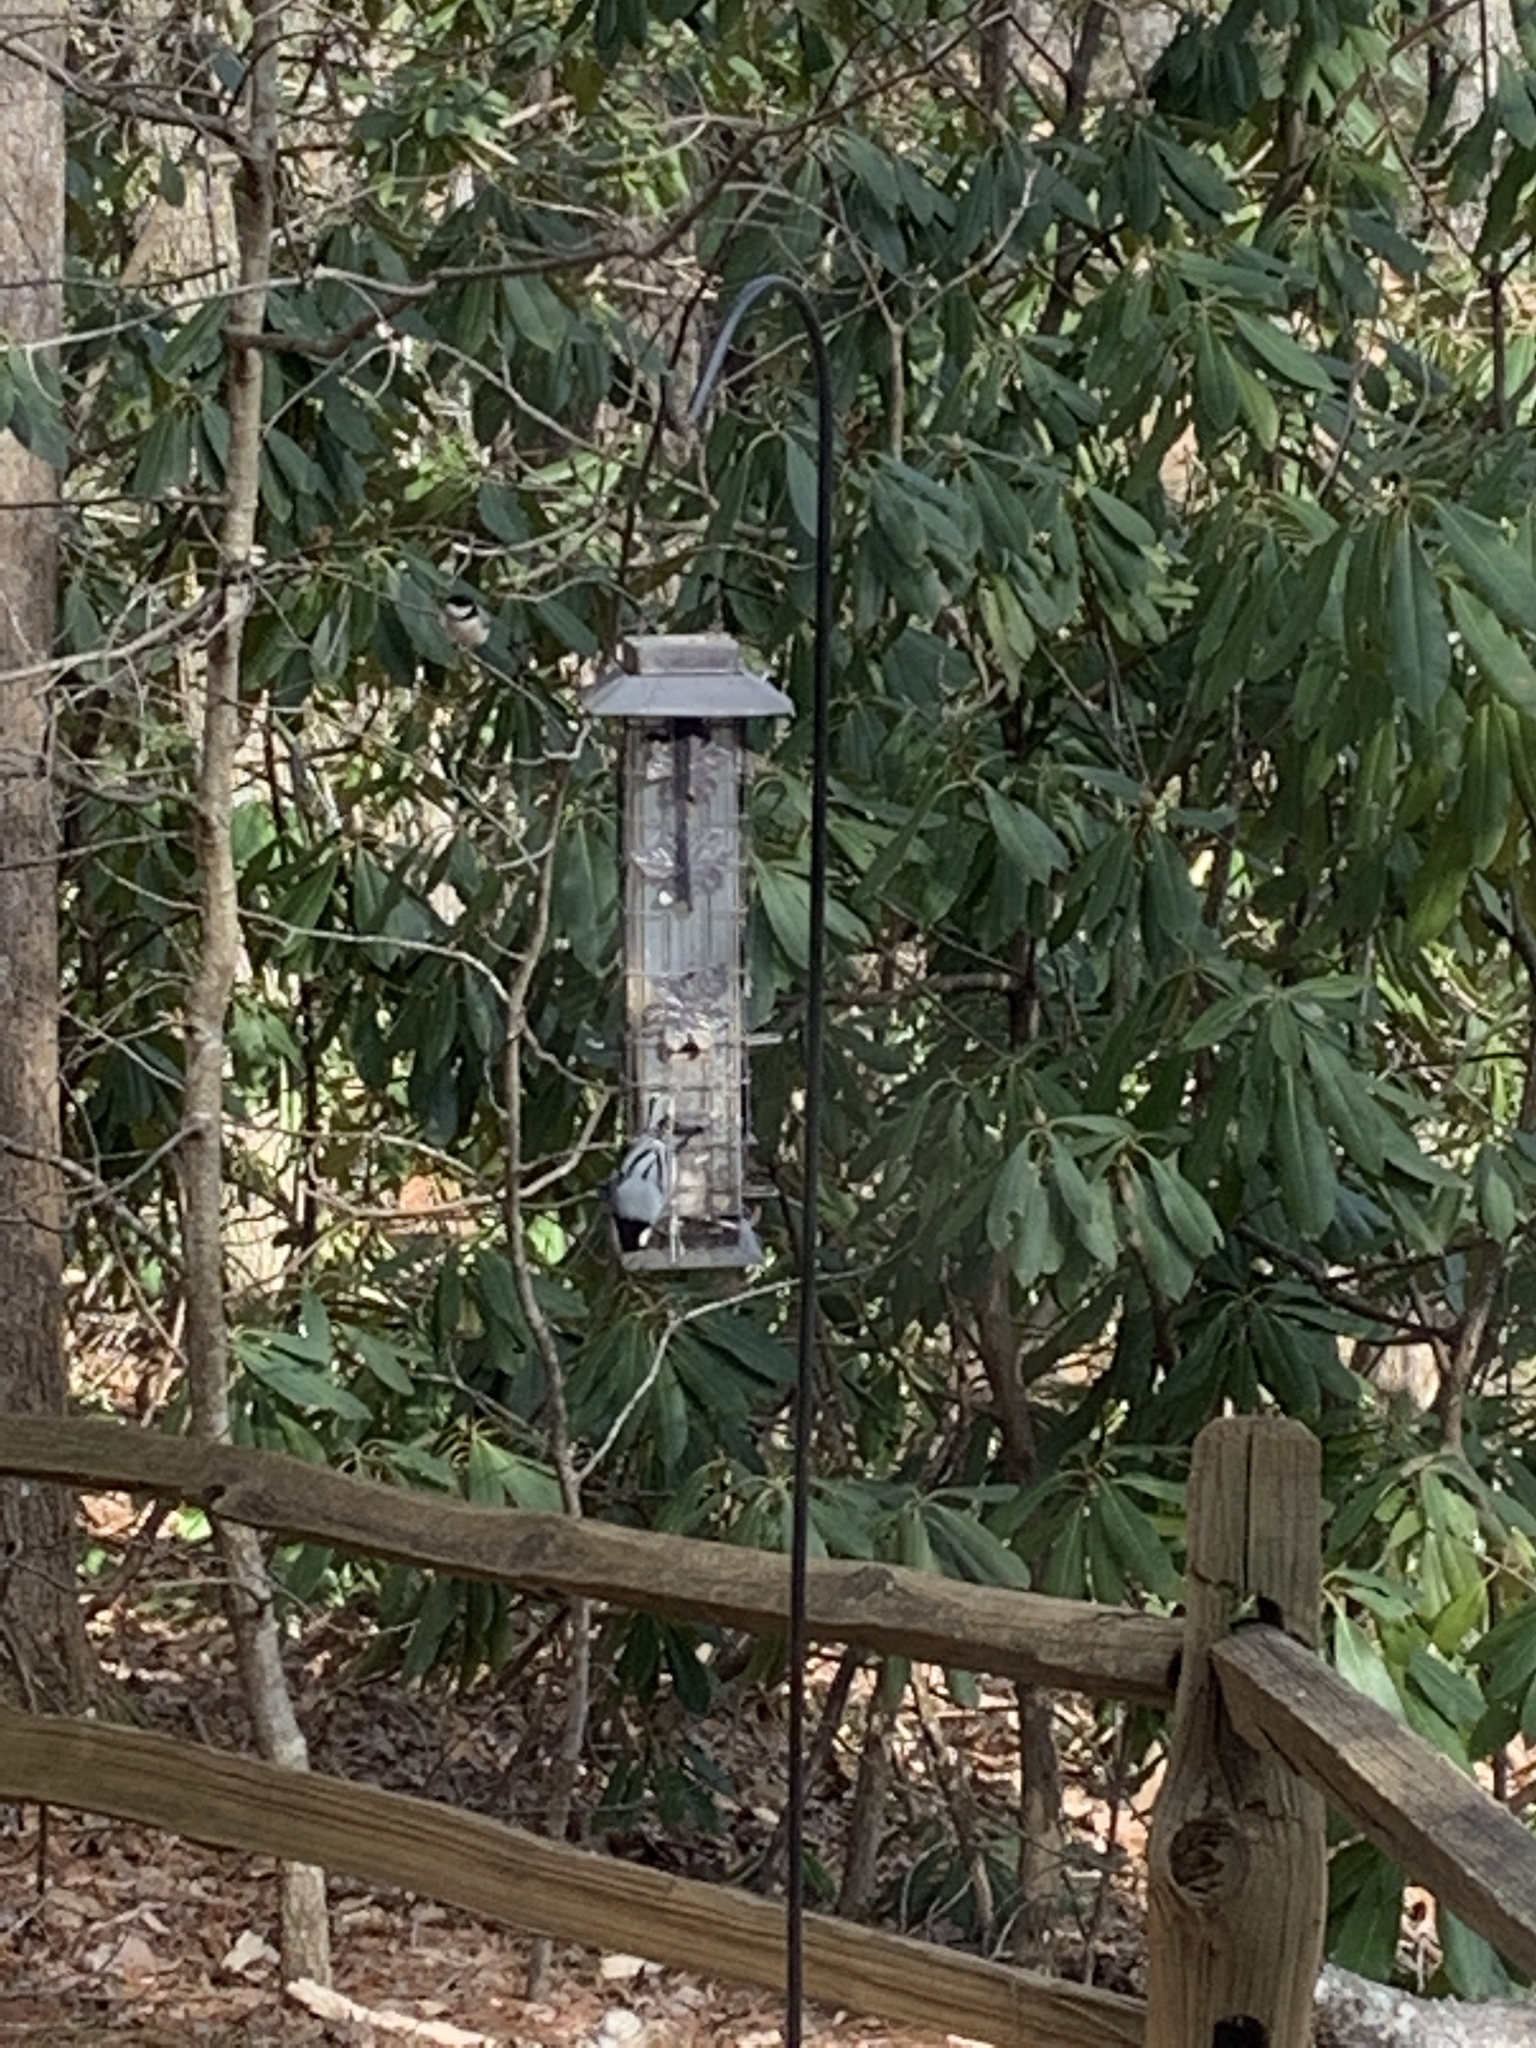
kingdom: Animalia
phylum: Chordata
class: Aves
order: Passeriformes
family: Sittidae
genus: Sitta
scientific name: Sitta carolinensis
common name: White-breasted nuthatch
